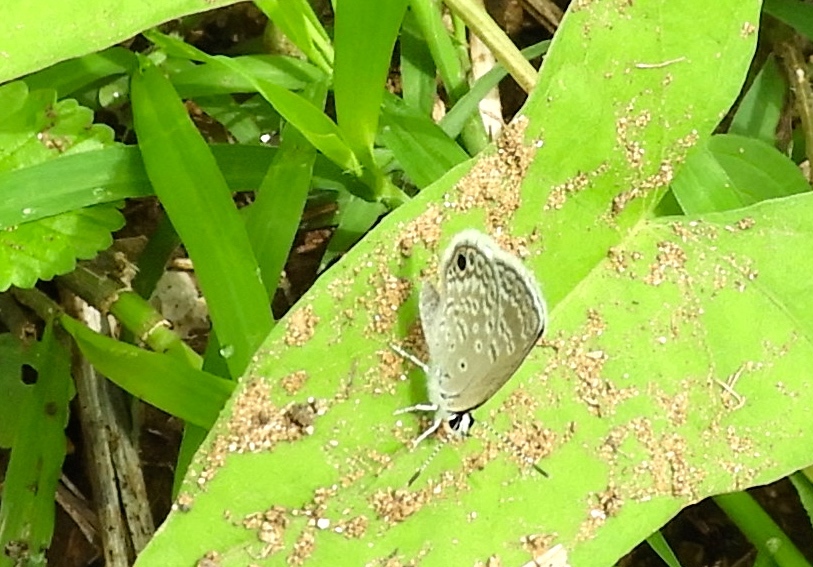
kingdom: Animalia
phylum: Arthropoda
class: Insecta
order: Lepidoptera
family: Lycaenidae
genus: Hemiargus
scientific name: Hemiargus ceraunus
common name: Ceraunus blue
